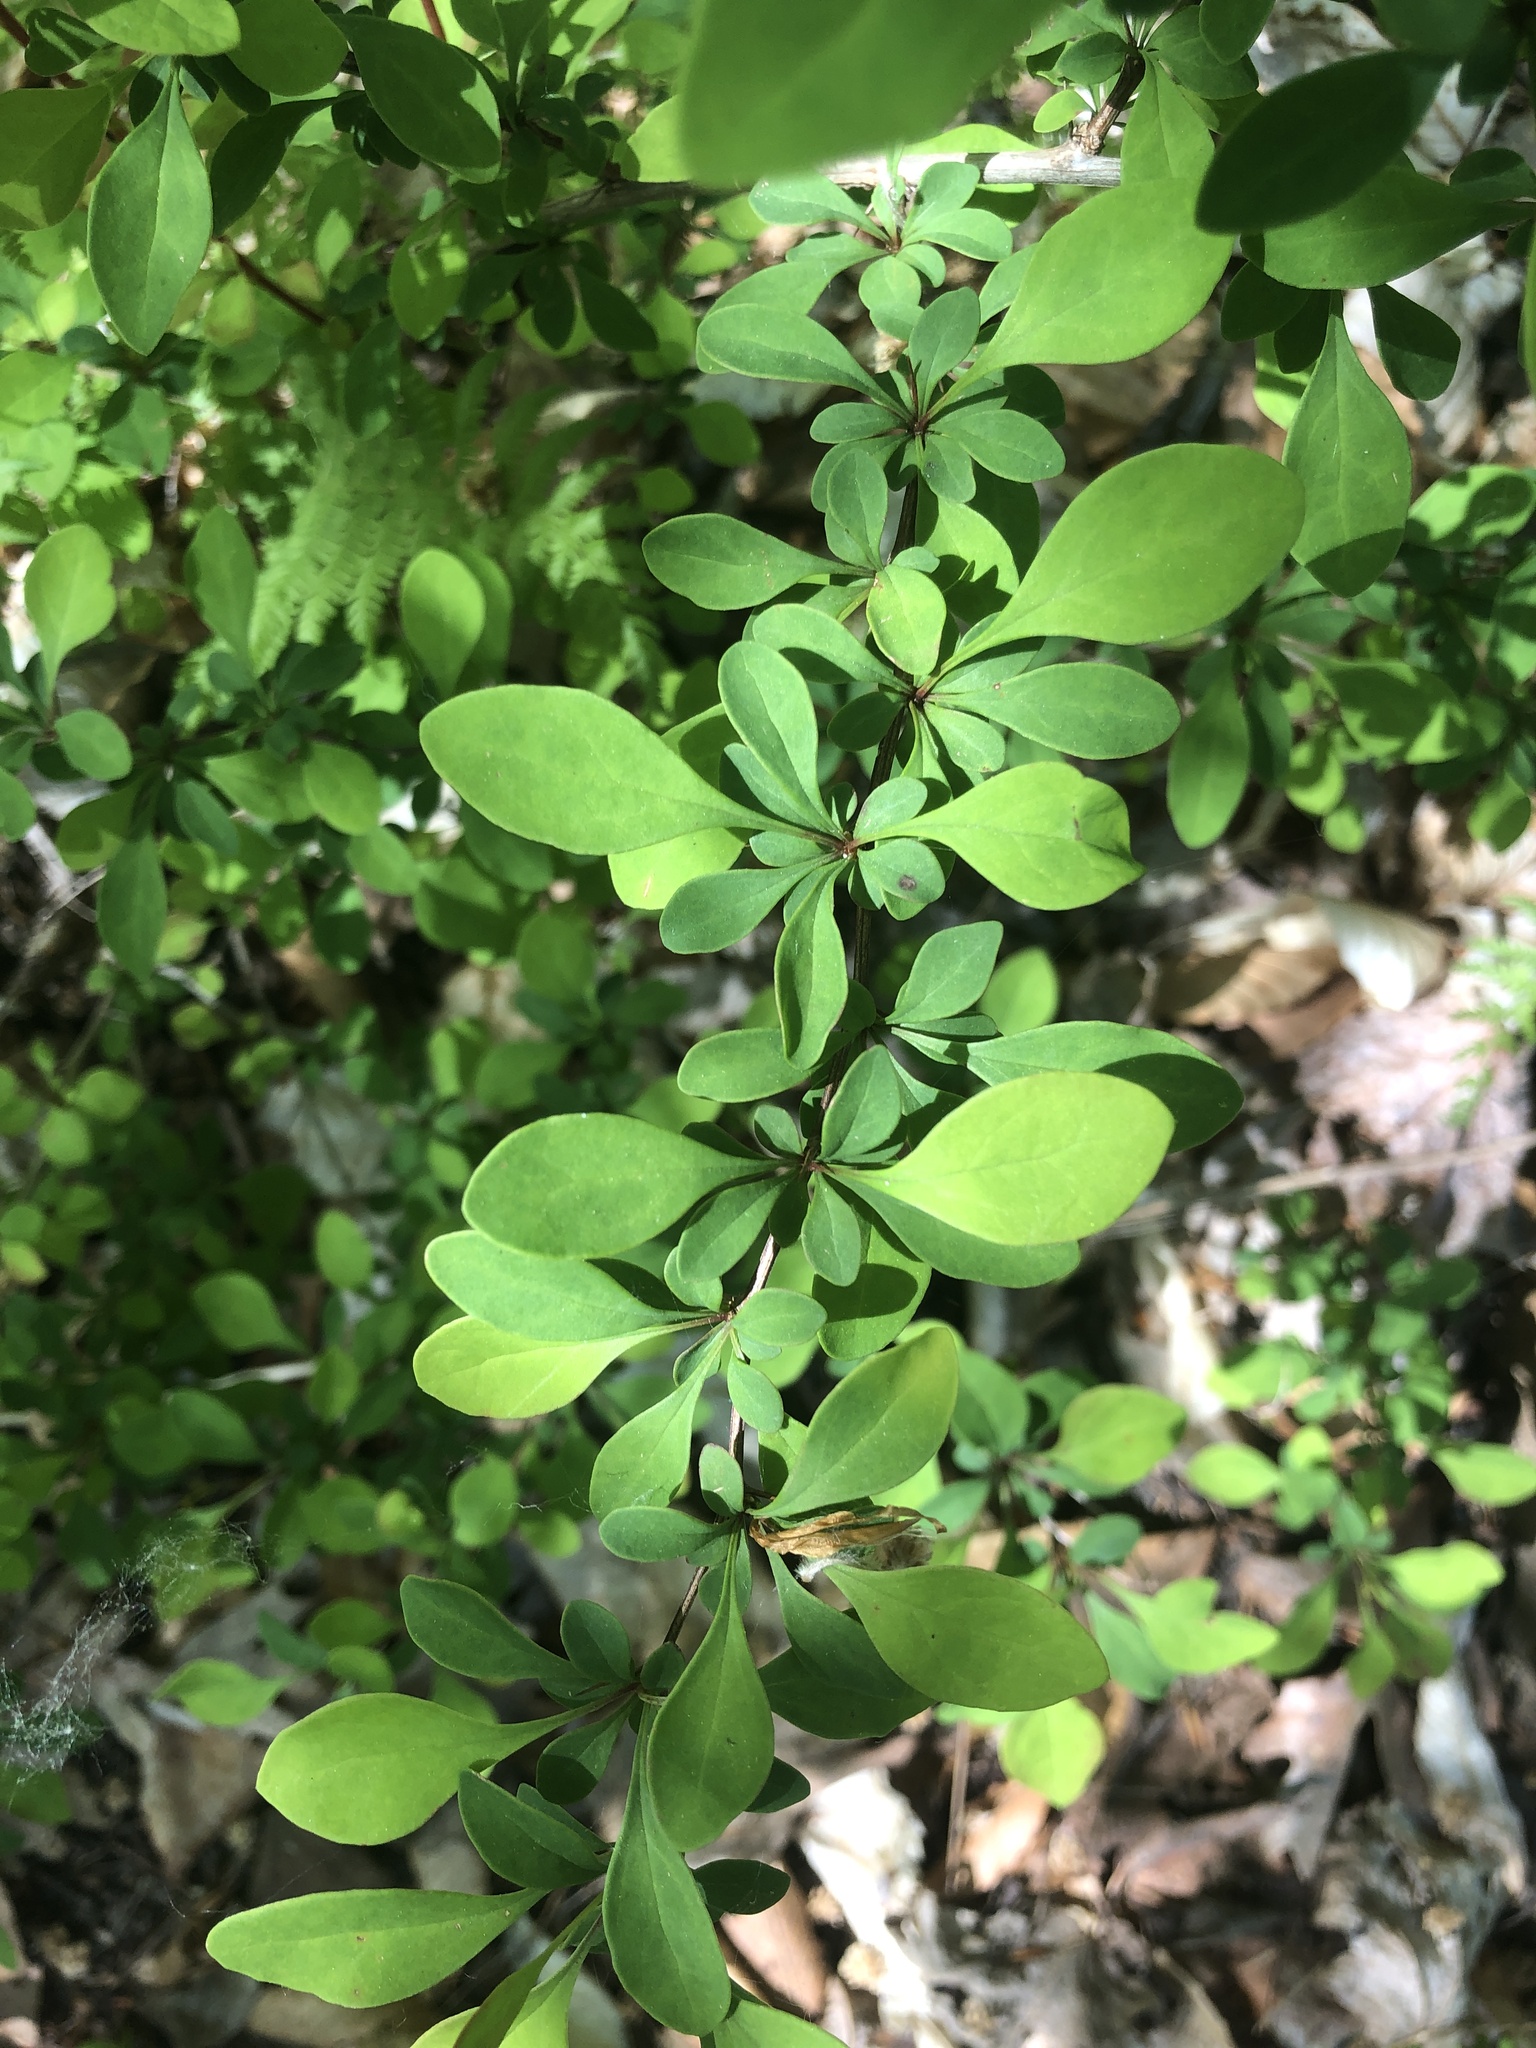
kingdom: Plantae
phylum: Tracheophyta
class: Magnoliopsida
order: Ranunculales
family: Berberidaceae
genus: Berberis
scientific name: Berberis thunbergii
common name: Japanese barberry
